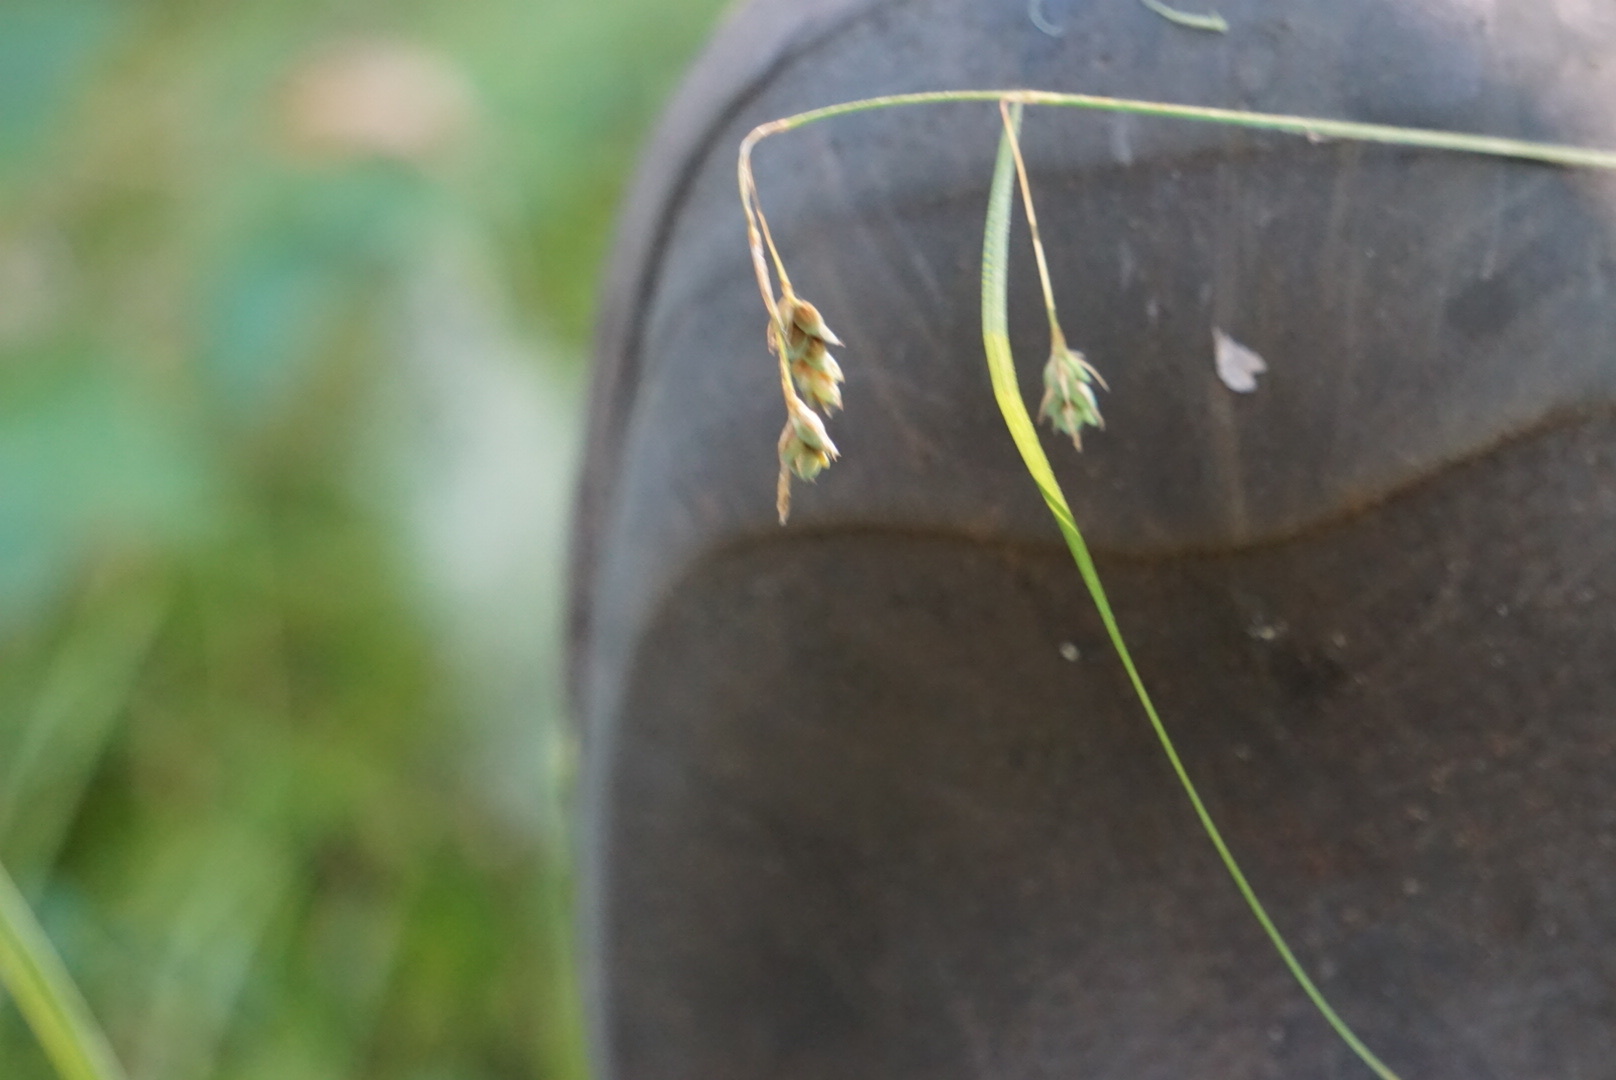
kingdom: Plantae
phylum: Tracheophyta
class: Liliopsida
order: Poales
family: Cyperaceae
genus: Carex
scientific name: Carex magellanica
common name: Bog sedge
